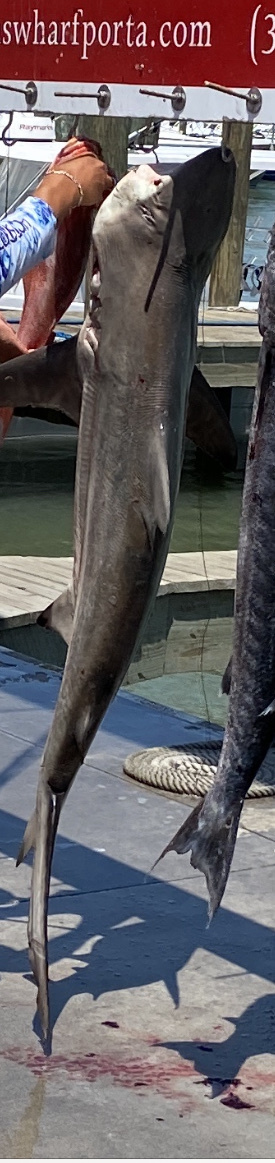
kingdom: Animalia
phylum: Chordata
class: Elasmobranchii
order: Carcharhiniformes
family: Carcharhinidae
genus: Carcharhinus
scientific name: Carcharhinus limbatus
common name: Blacktip shark
